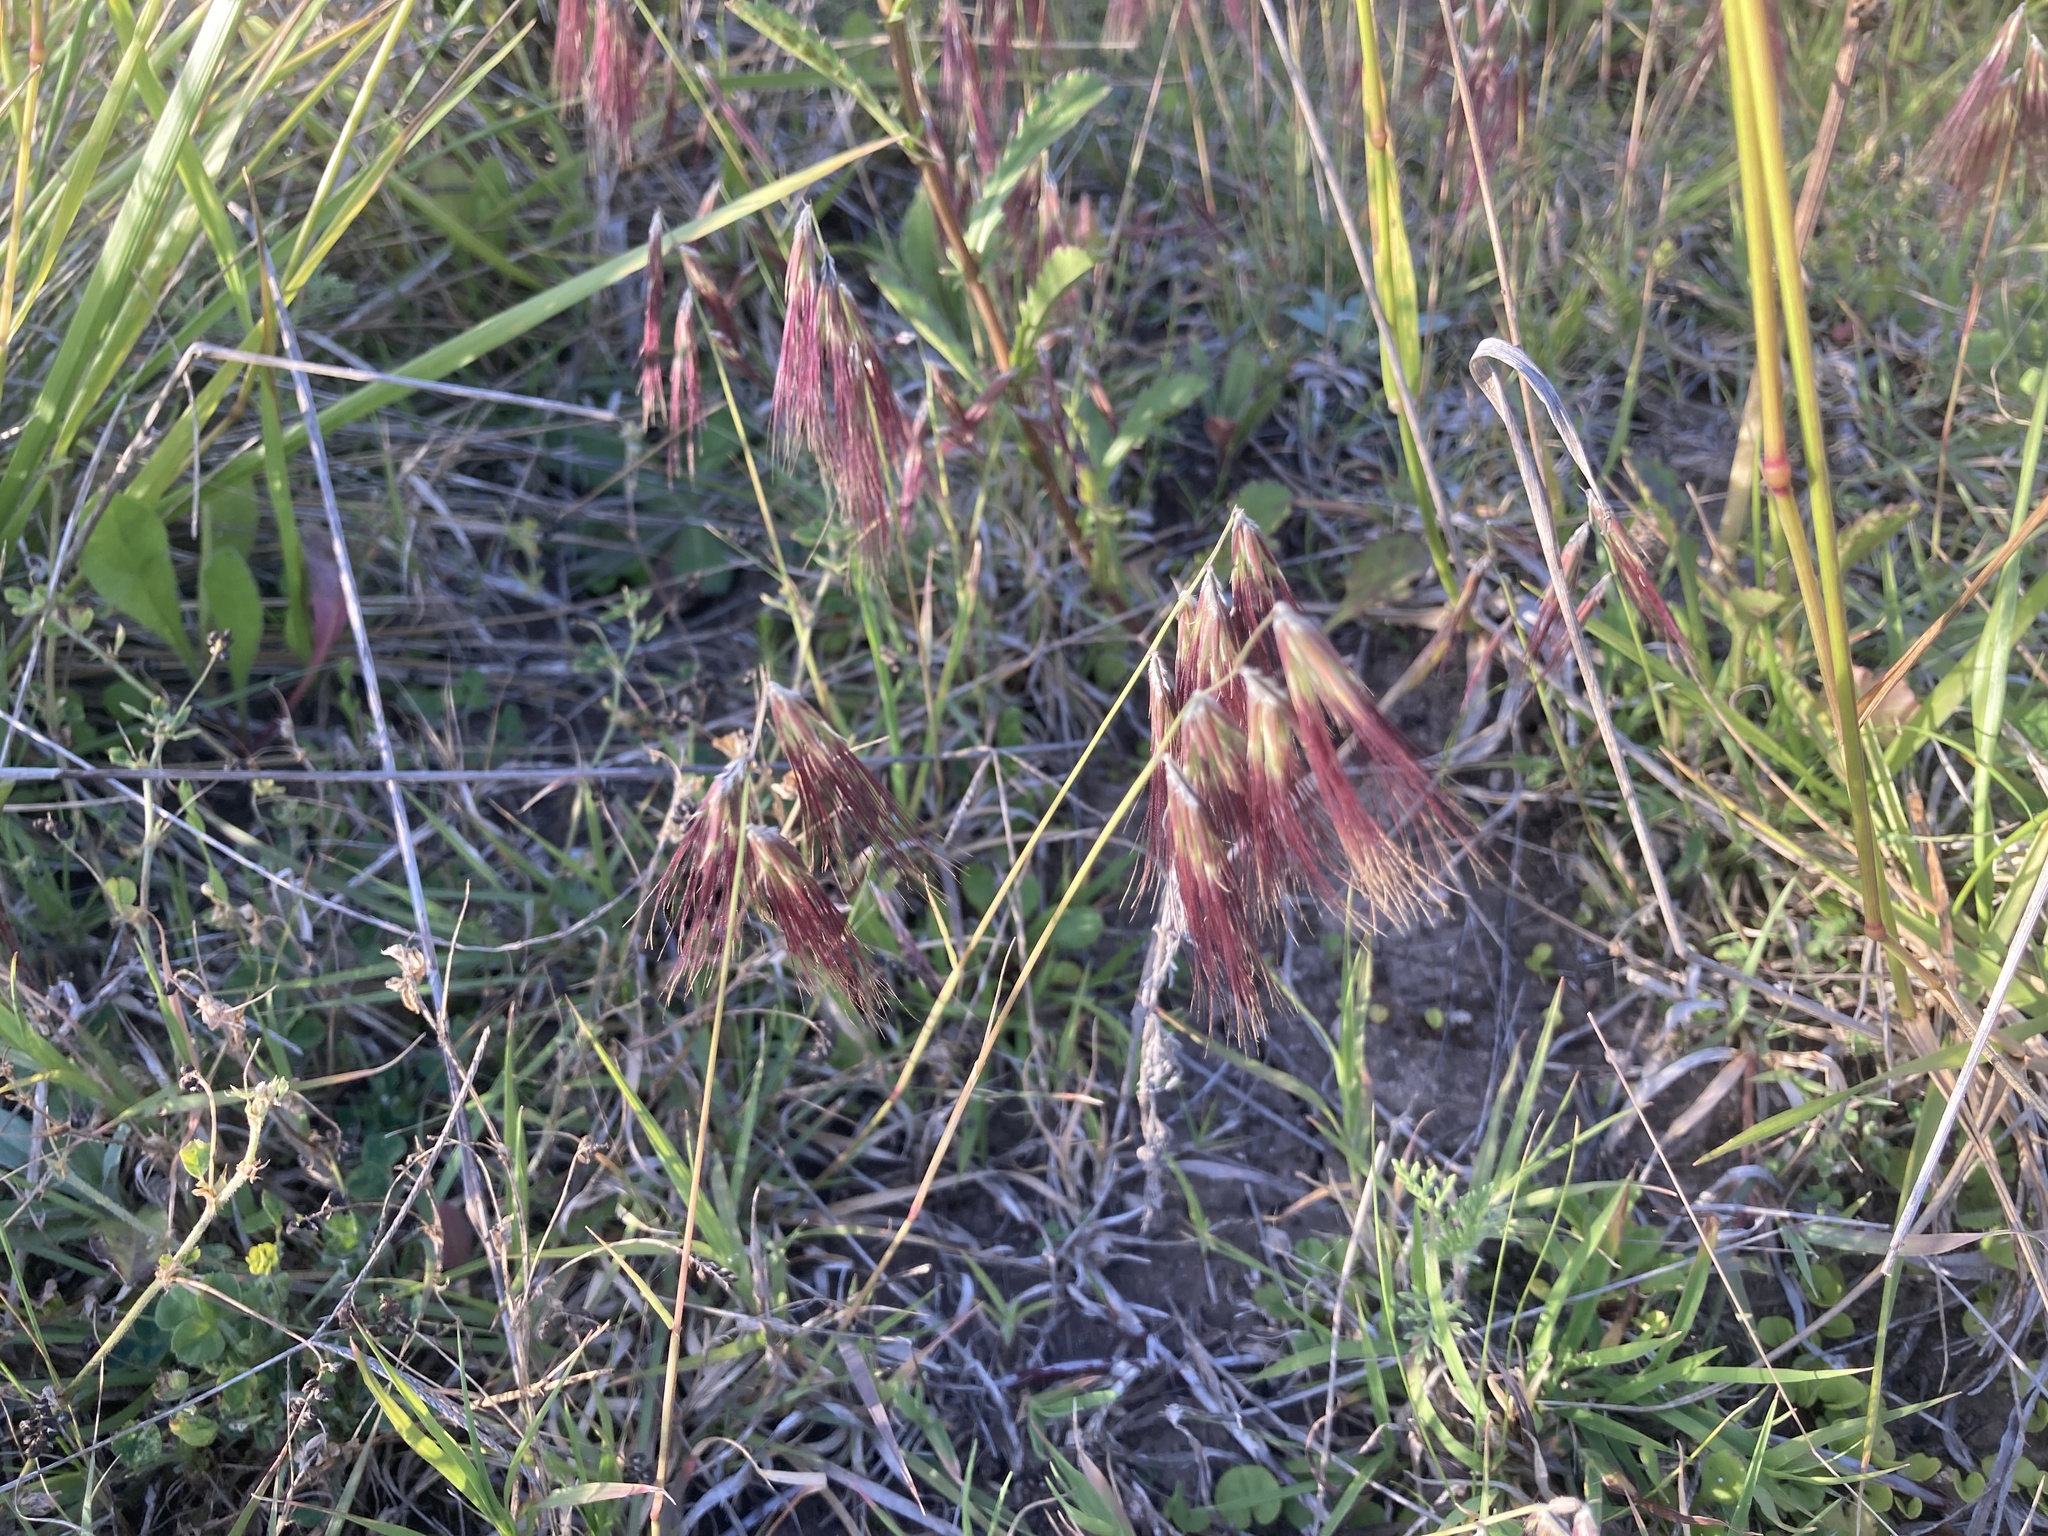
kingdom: Plantae
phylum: Tracheophyta
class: Liliopsida
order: Poales
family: Poaceae
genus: Bouteloua
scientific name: Bouteloua megapotamica
